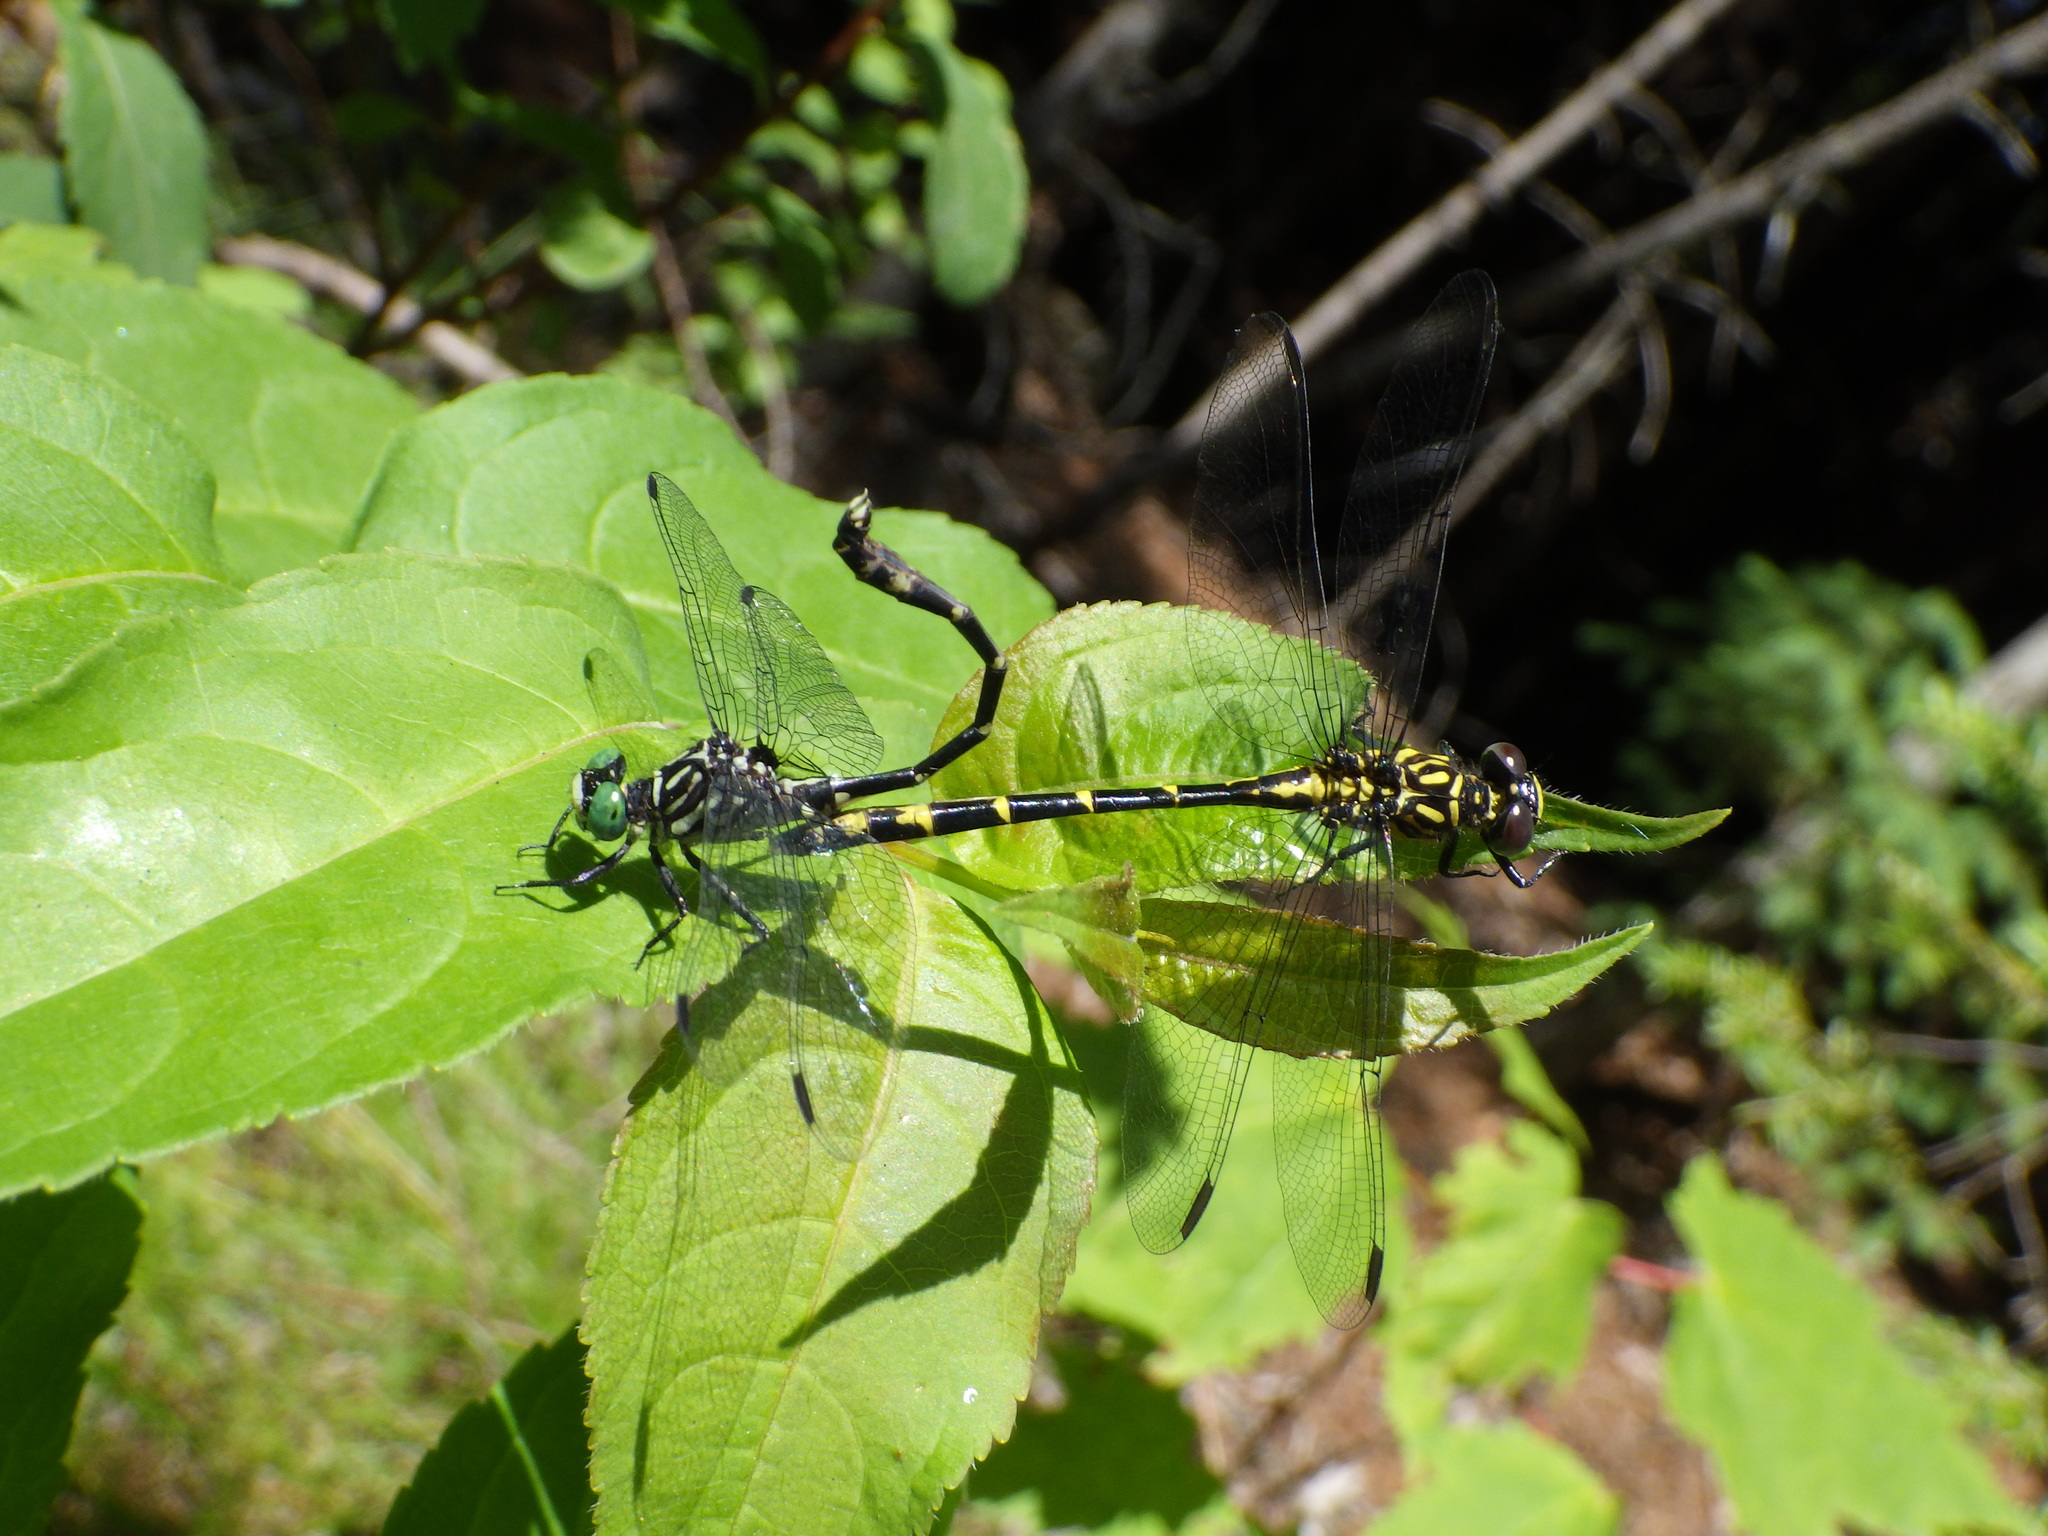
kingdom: Animalia
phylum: Arthropoda
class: Insecta
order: Odonata
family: Gomphidae
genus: Stylogomphus
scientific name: Stylogomphus albistylus
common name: Eastern least clubtail
